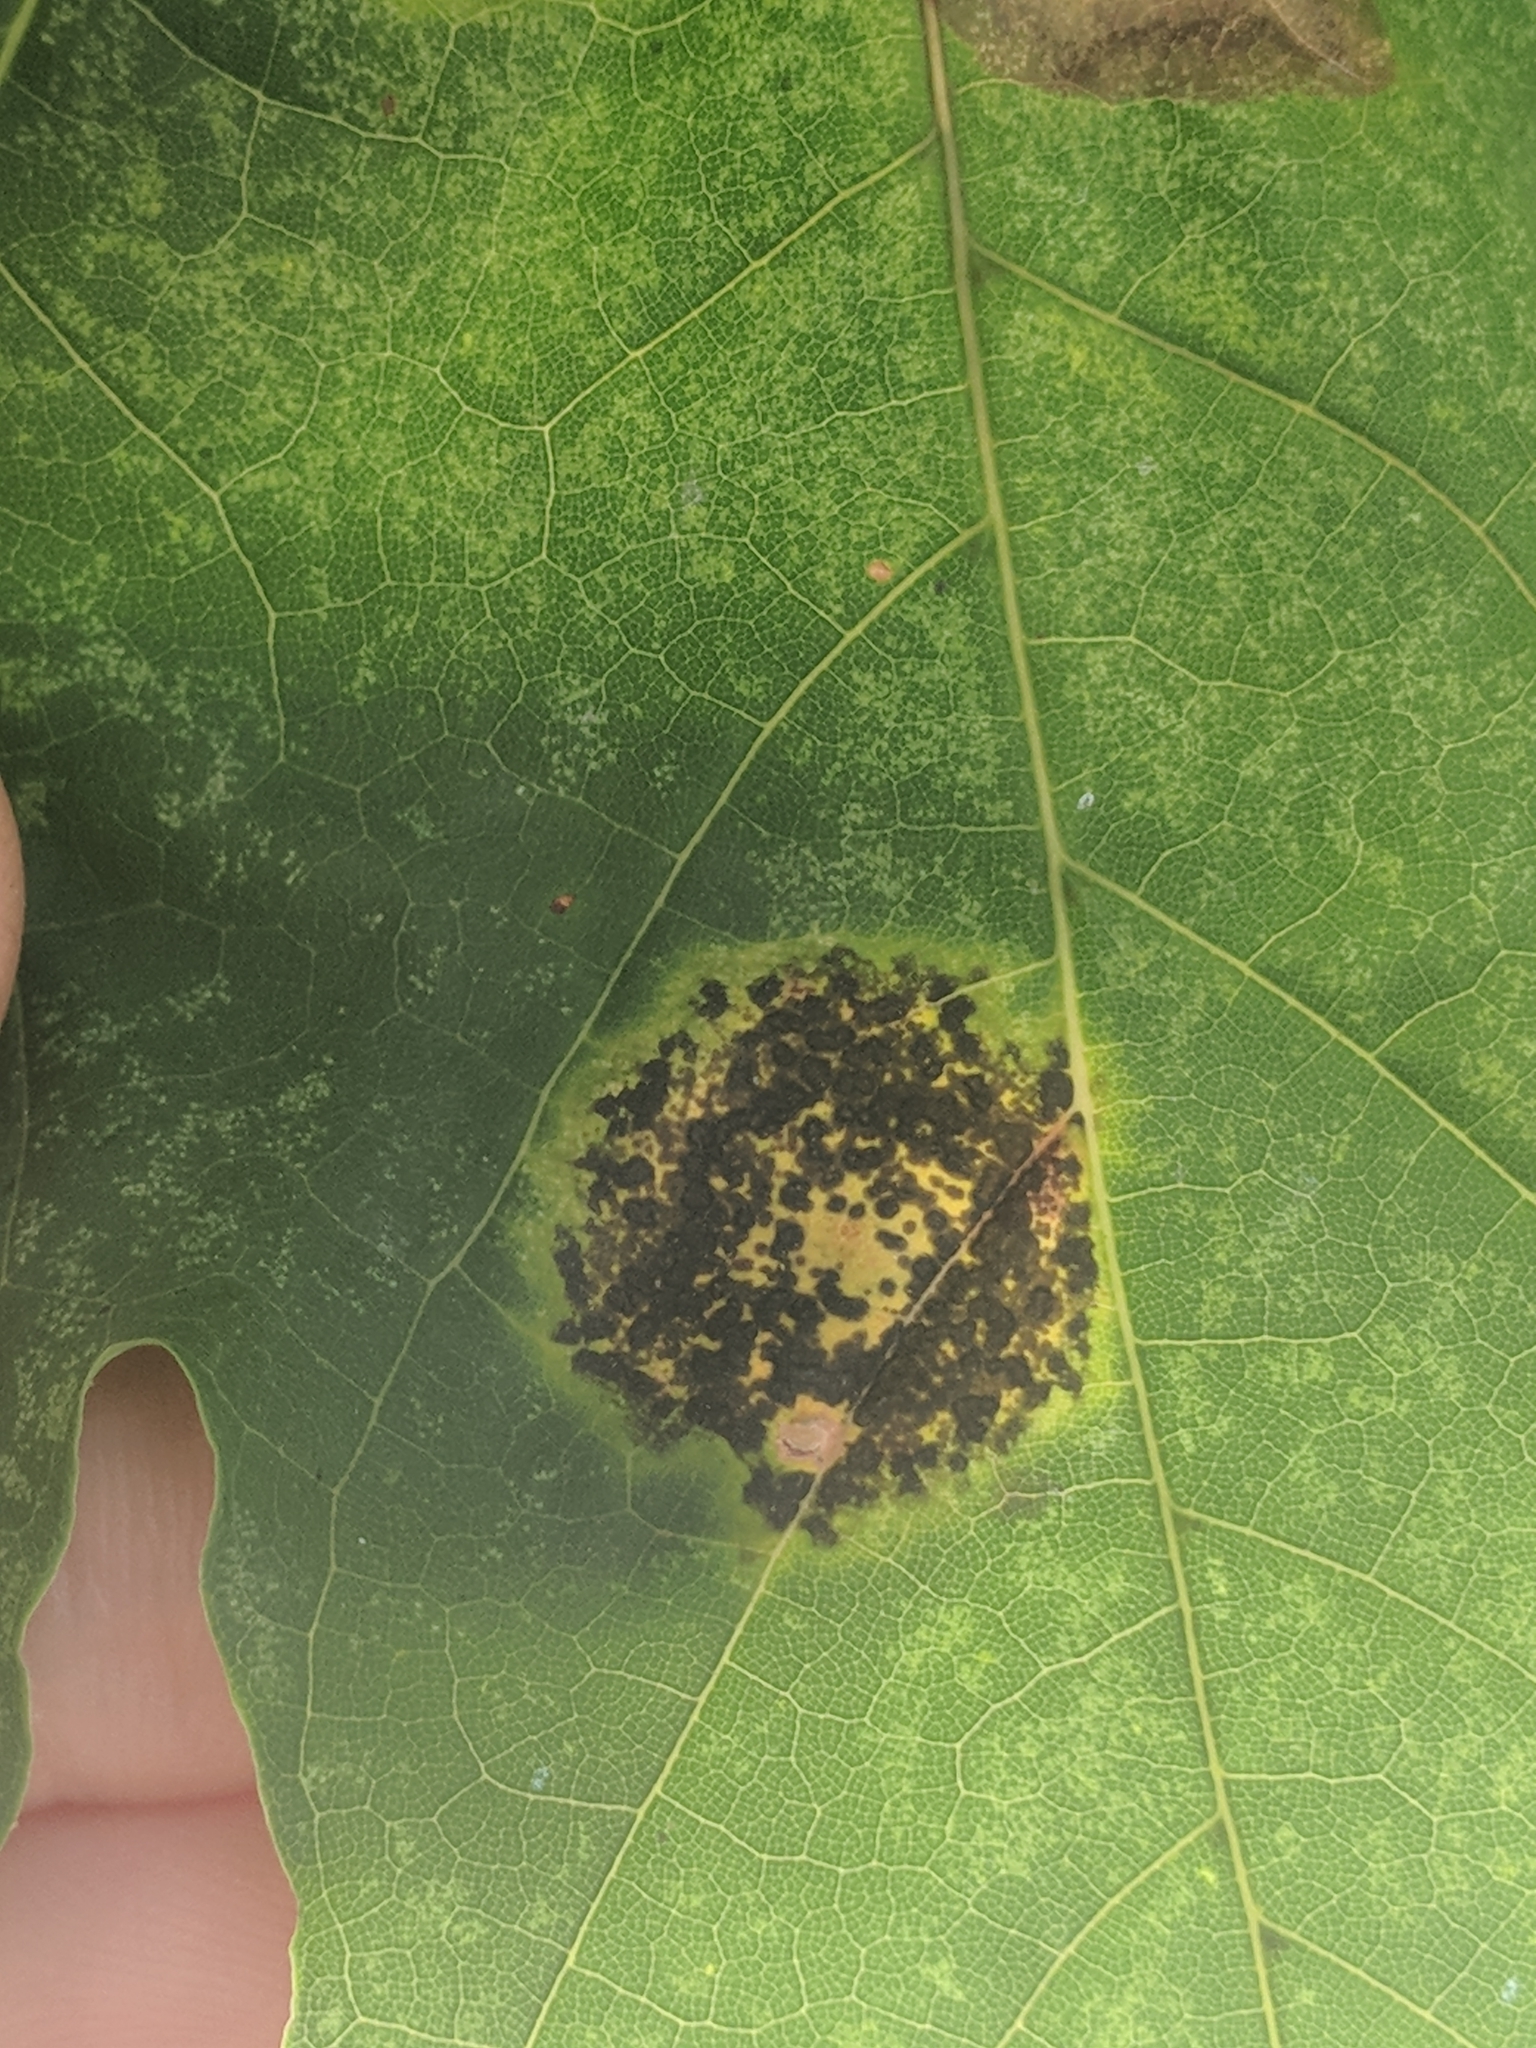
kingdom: Fungi
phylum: Ascomycota
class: Leotiomycetes
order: Rhytismatales
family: Rhytismataceae
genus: Rhytisma
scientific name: Rhytisma acerinum
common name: European tar spot
